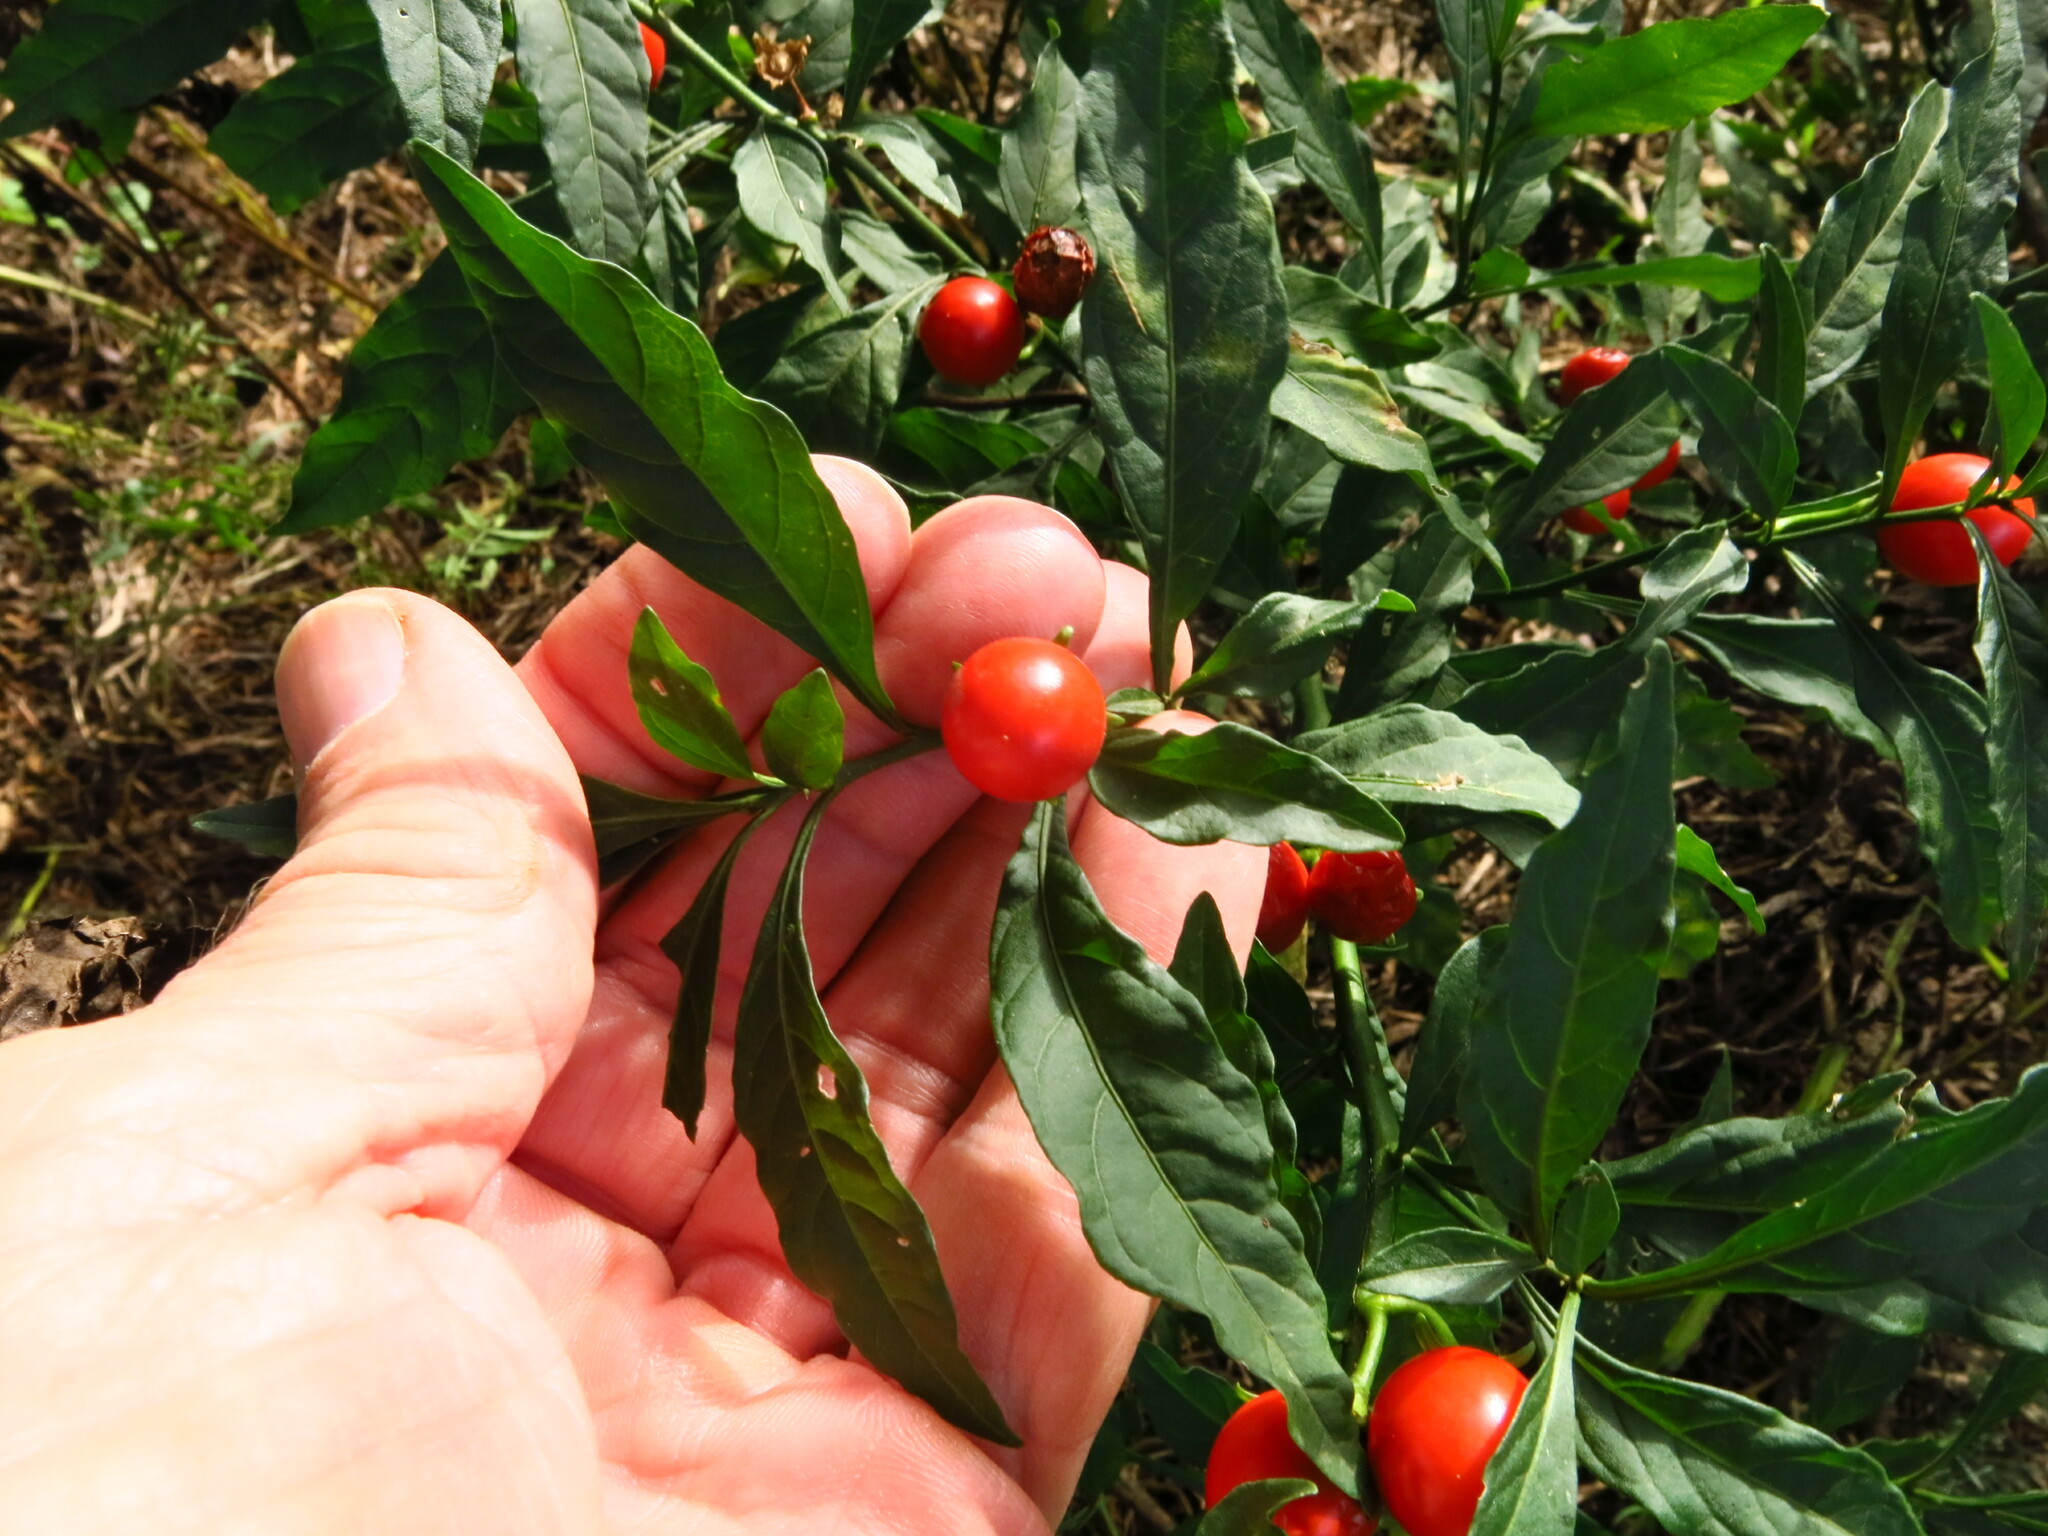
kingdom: Plantae
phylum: Tracheophyta
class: Magnoliopsida
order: Solanales
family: Solanaceae
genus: Solanum
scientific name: Solanum pseudocapsicum
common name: Jerusalem cherry
